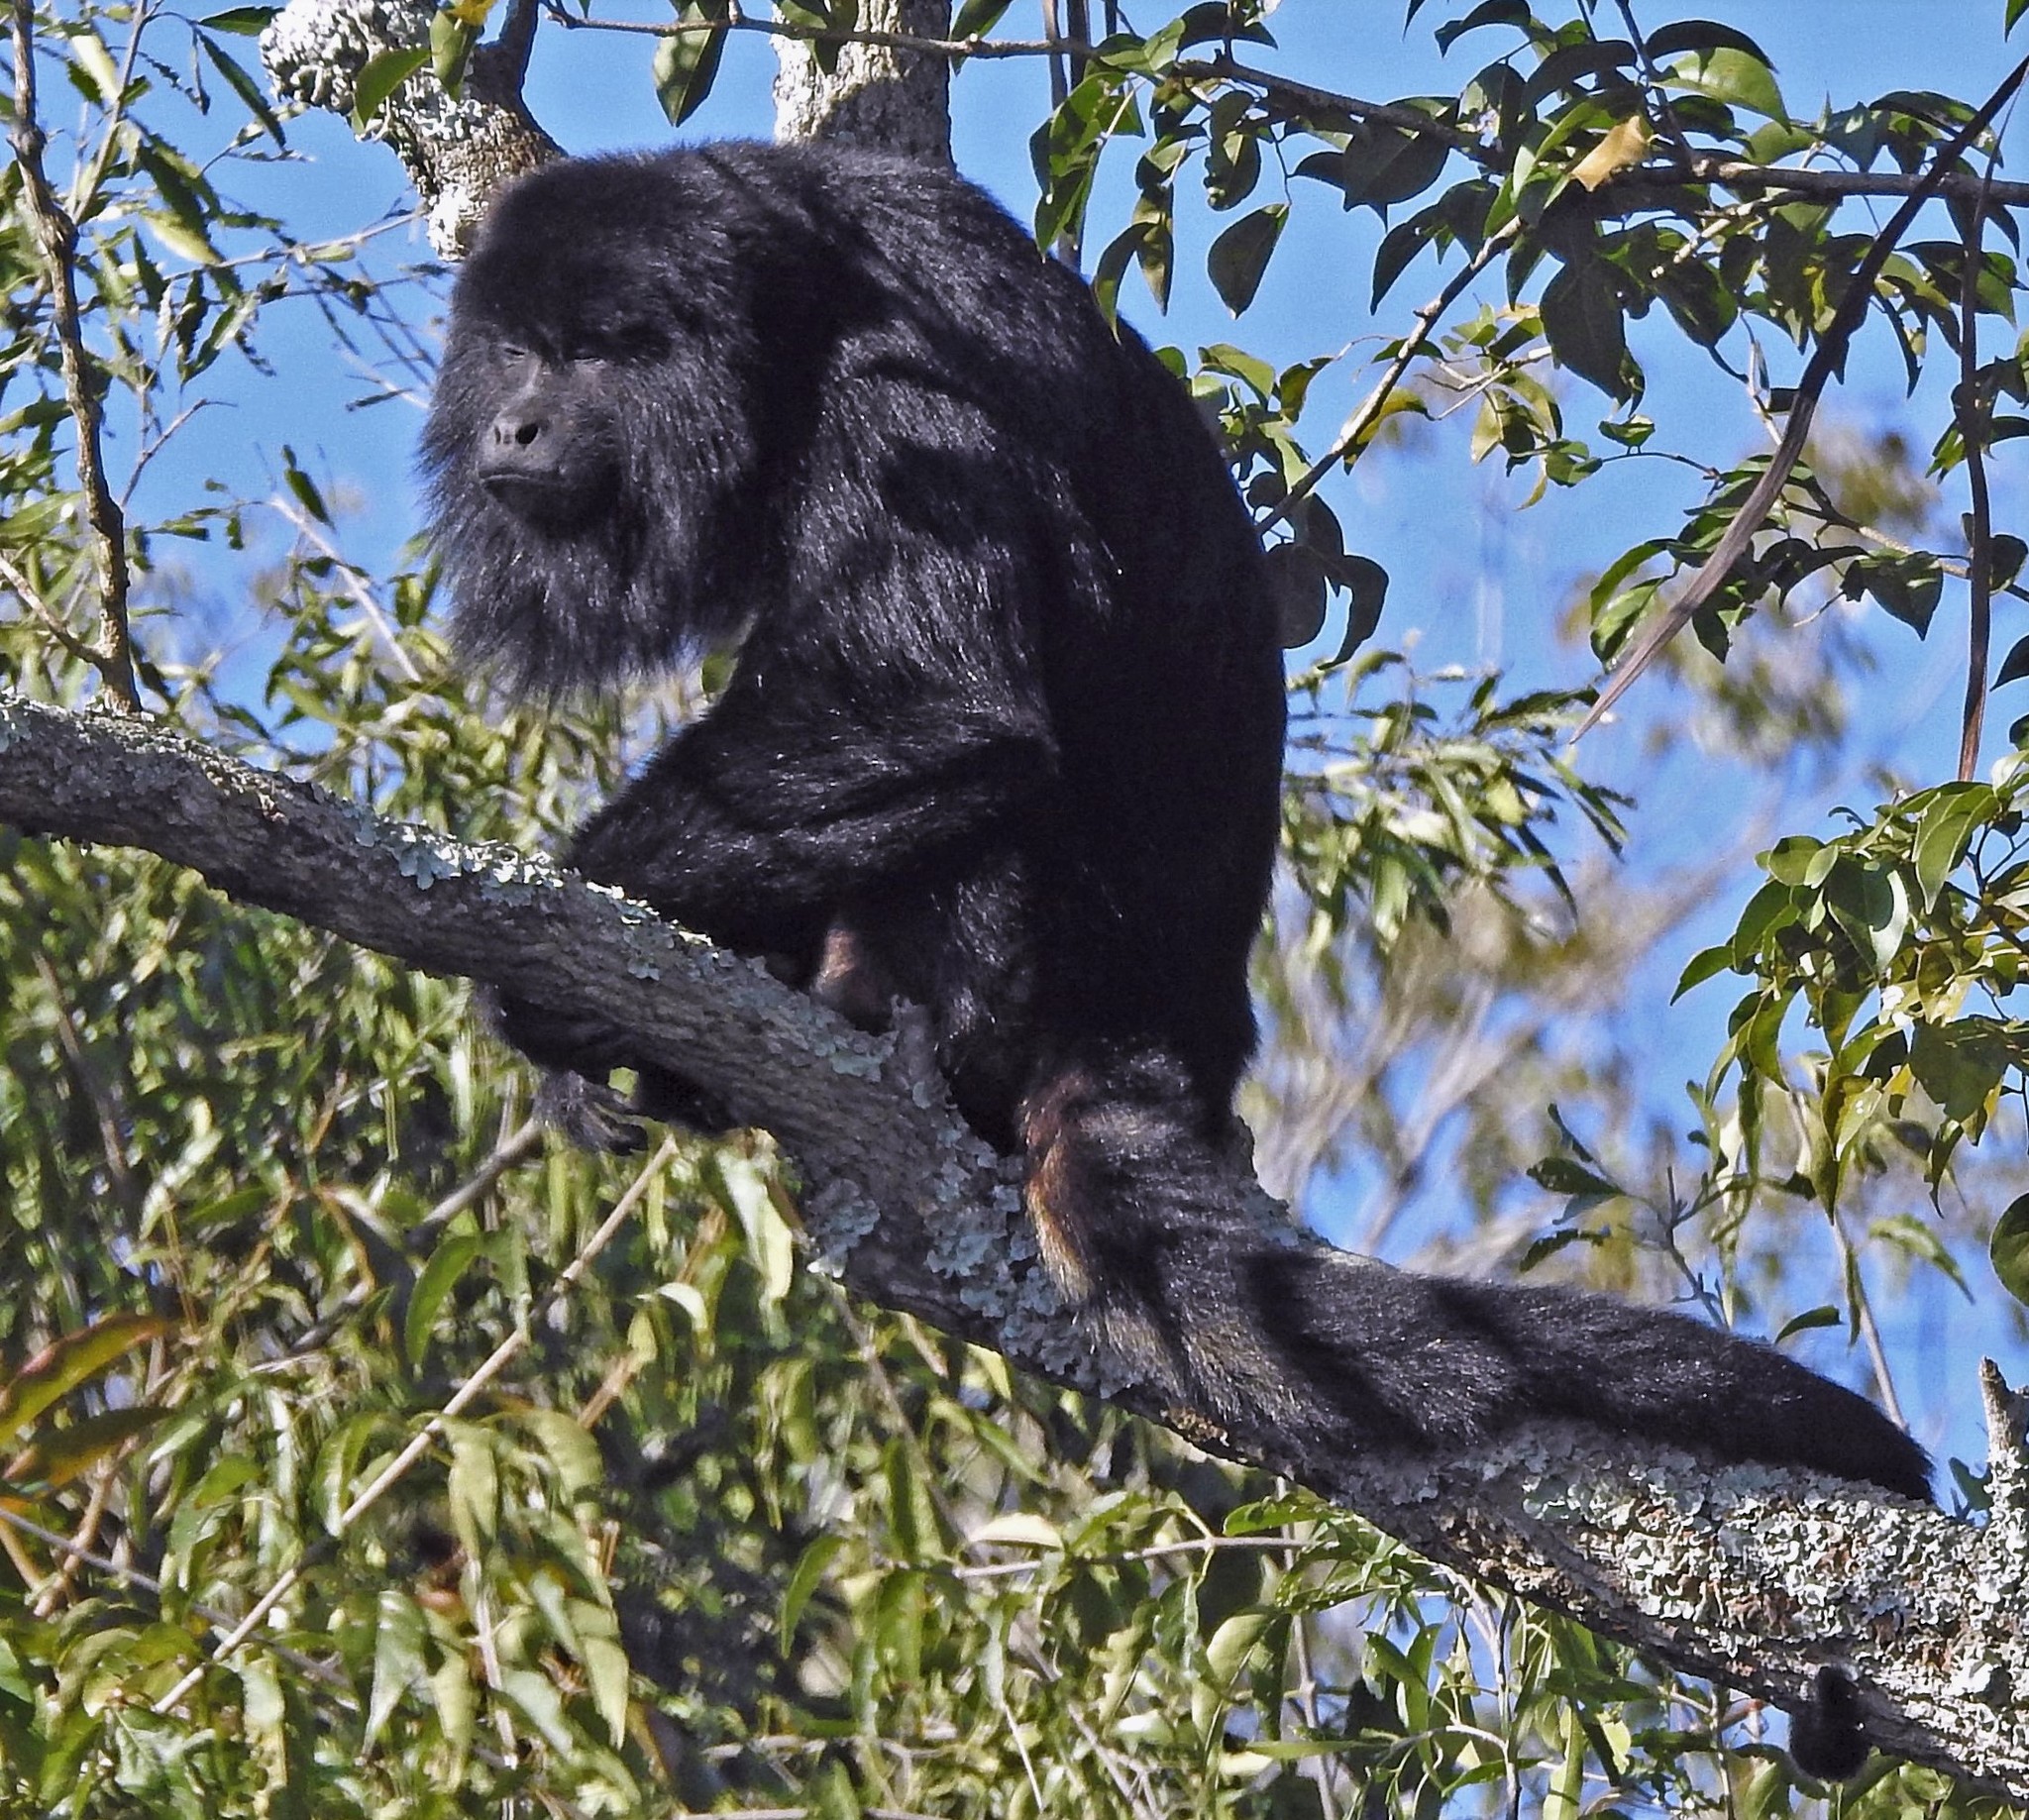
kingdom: Animalia
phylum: Chordata
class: Mammalia
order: Primates
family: Atelidae
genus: Alouatta
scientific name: Alouatta caraya
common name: Black howler
